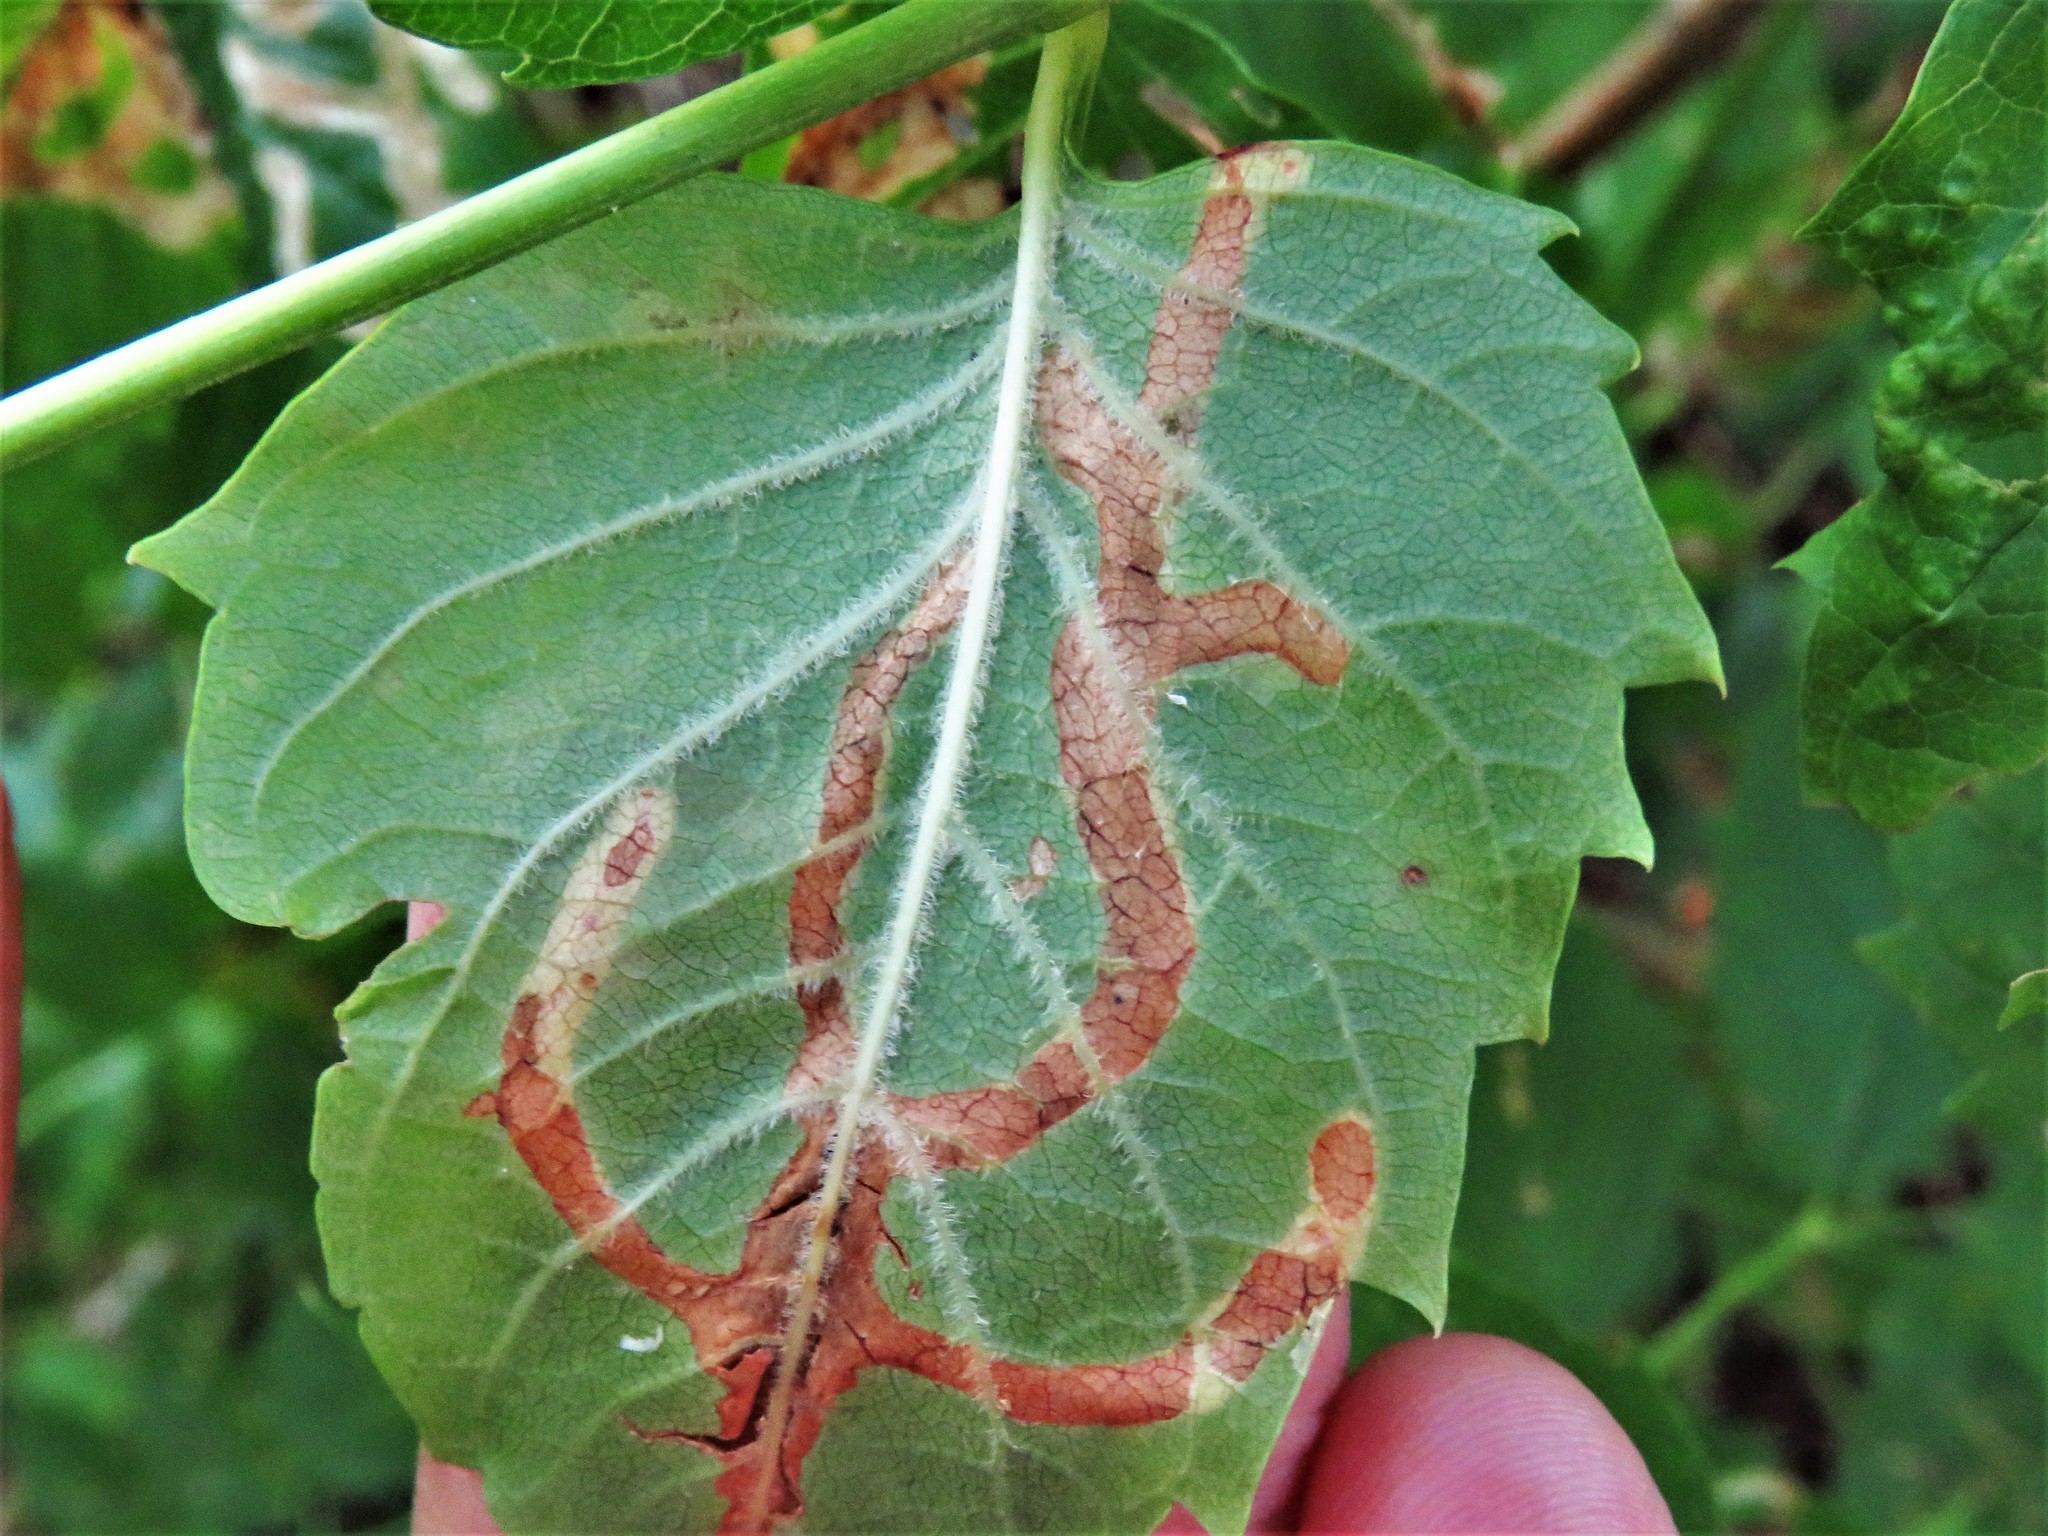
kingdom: Animalia
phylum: Arthropoda
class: Insecta
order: Coleoptera
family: Chrysomelidae
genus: Octotoma
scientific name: Octotoma plicatula
